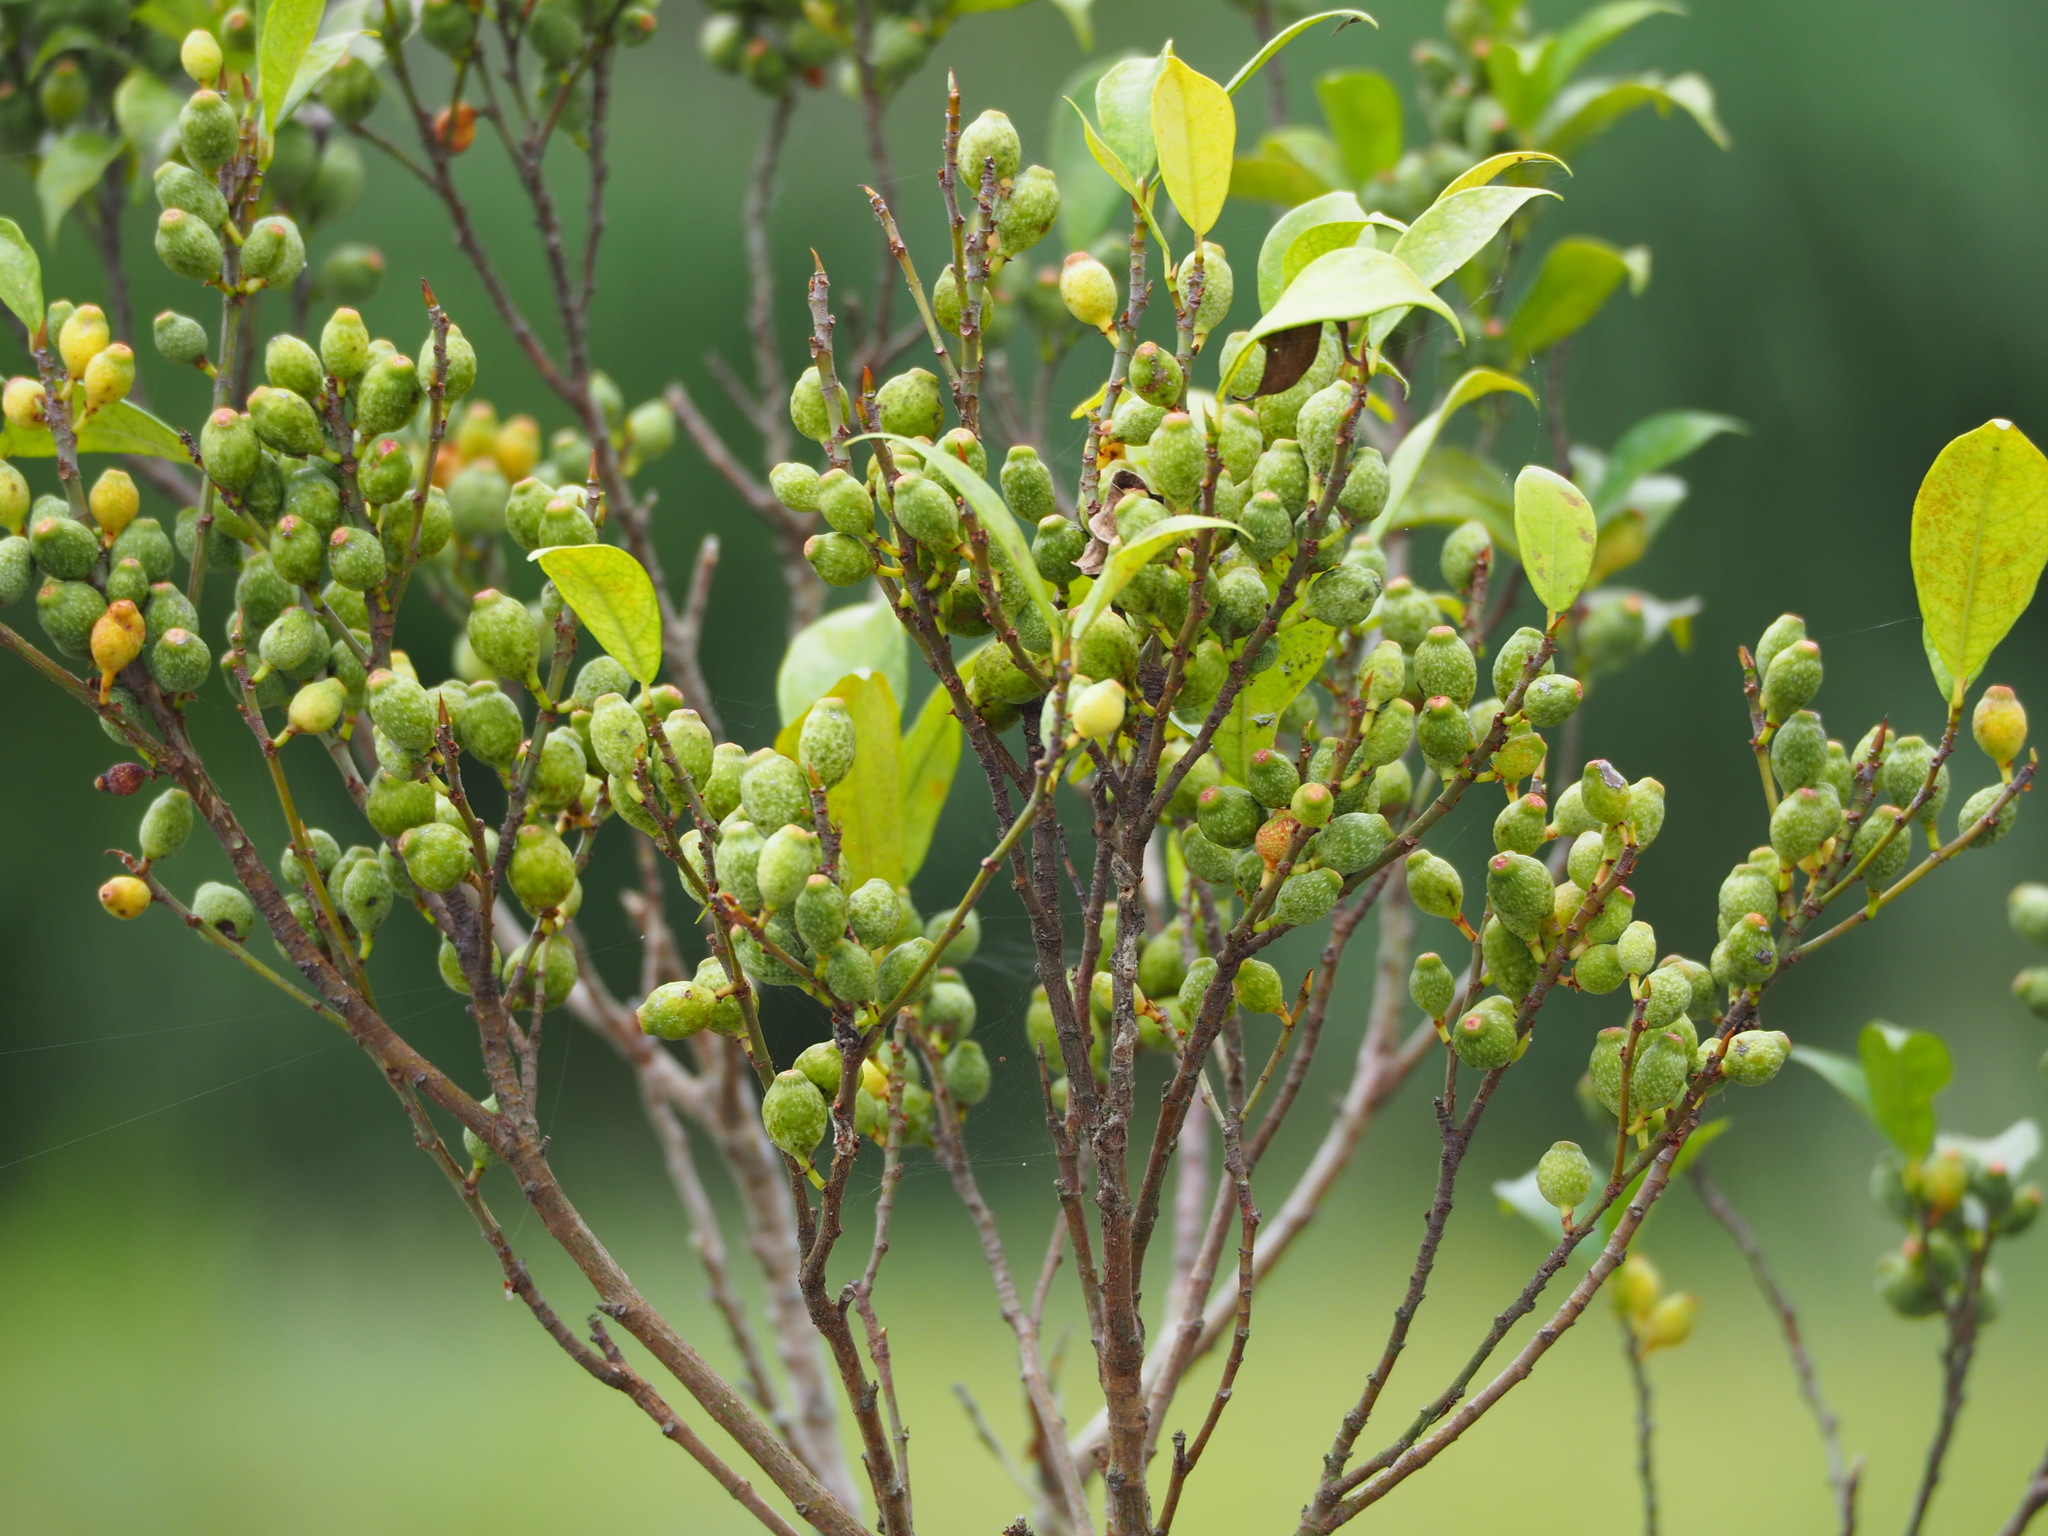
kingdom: Plantae
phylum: Tracheophyta
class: Magnoliopsida
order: Rosales
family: Moraceae
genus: Ficus
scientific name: Ficus formosana
